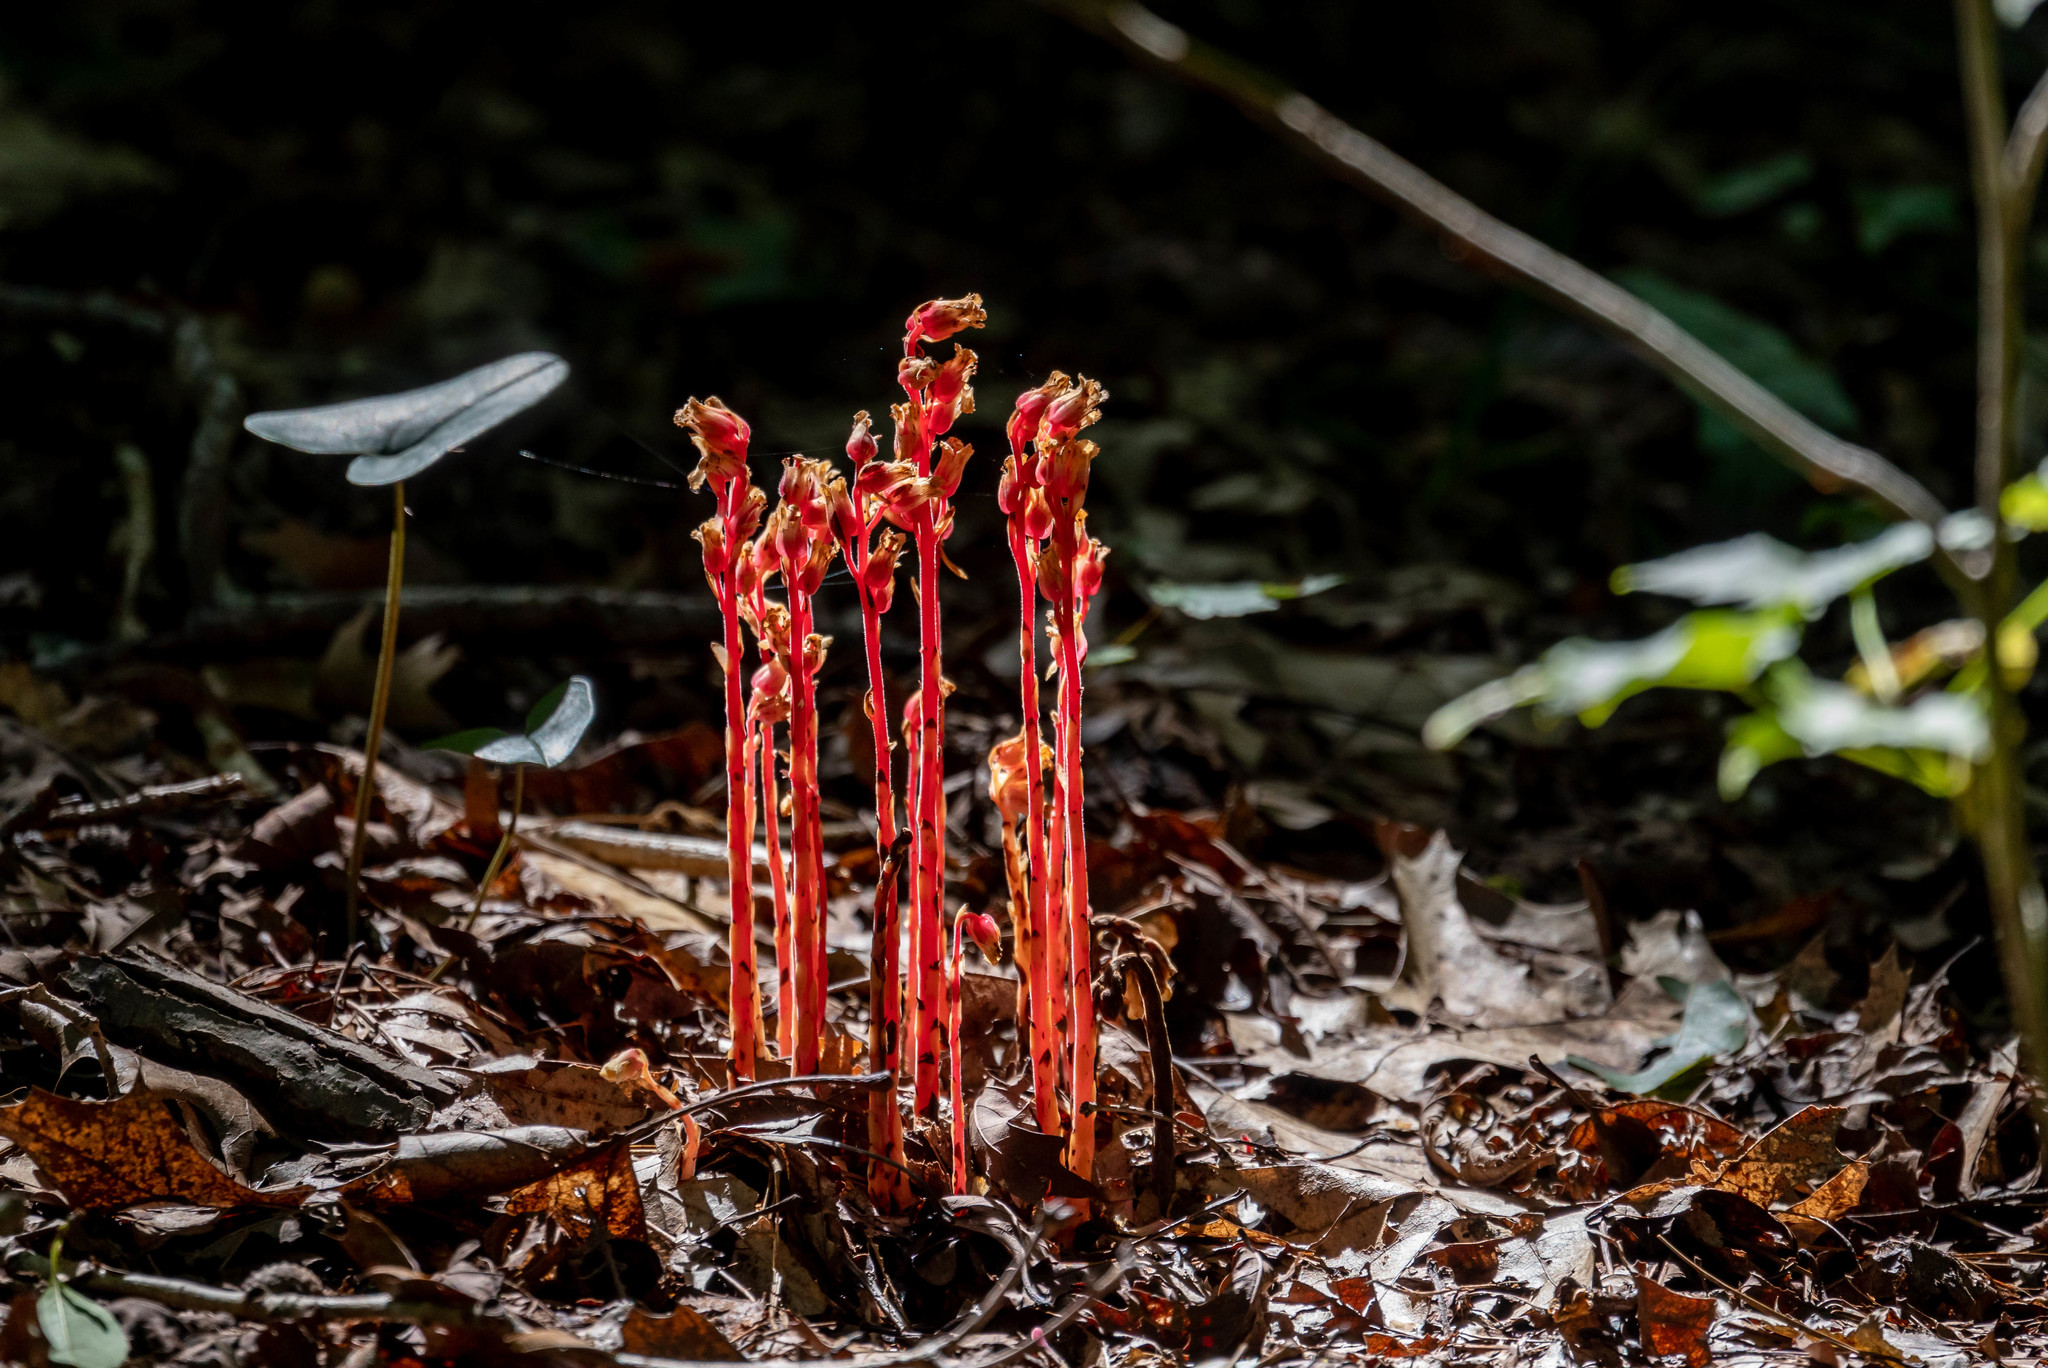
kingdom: Plantae
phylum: Tracheophyta
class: Magnoliopsida
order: Ericales
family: Ericaceae
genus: Hypopitys
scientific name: Hypopitys monotropa
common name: Yellow bird's-nest
